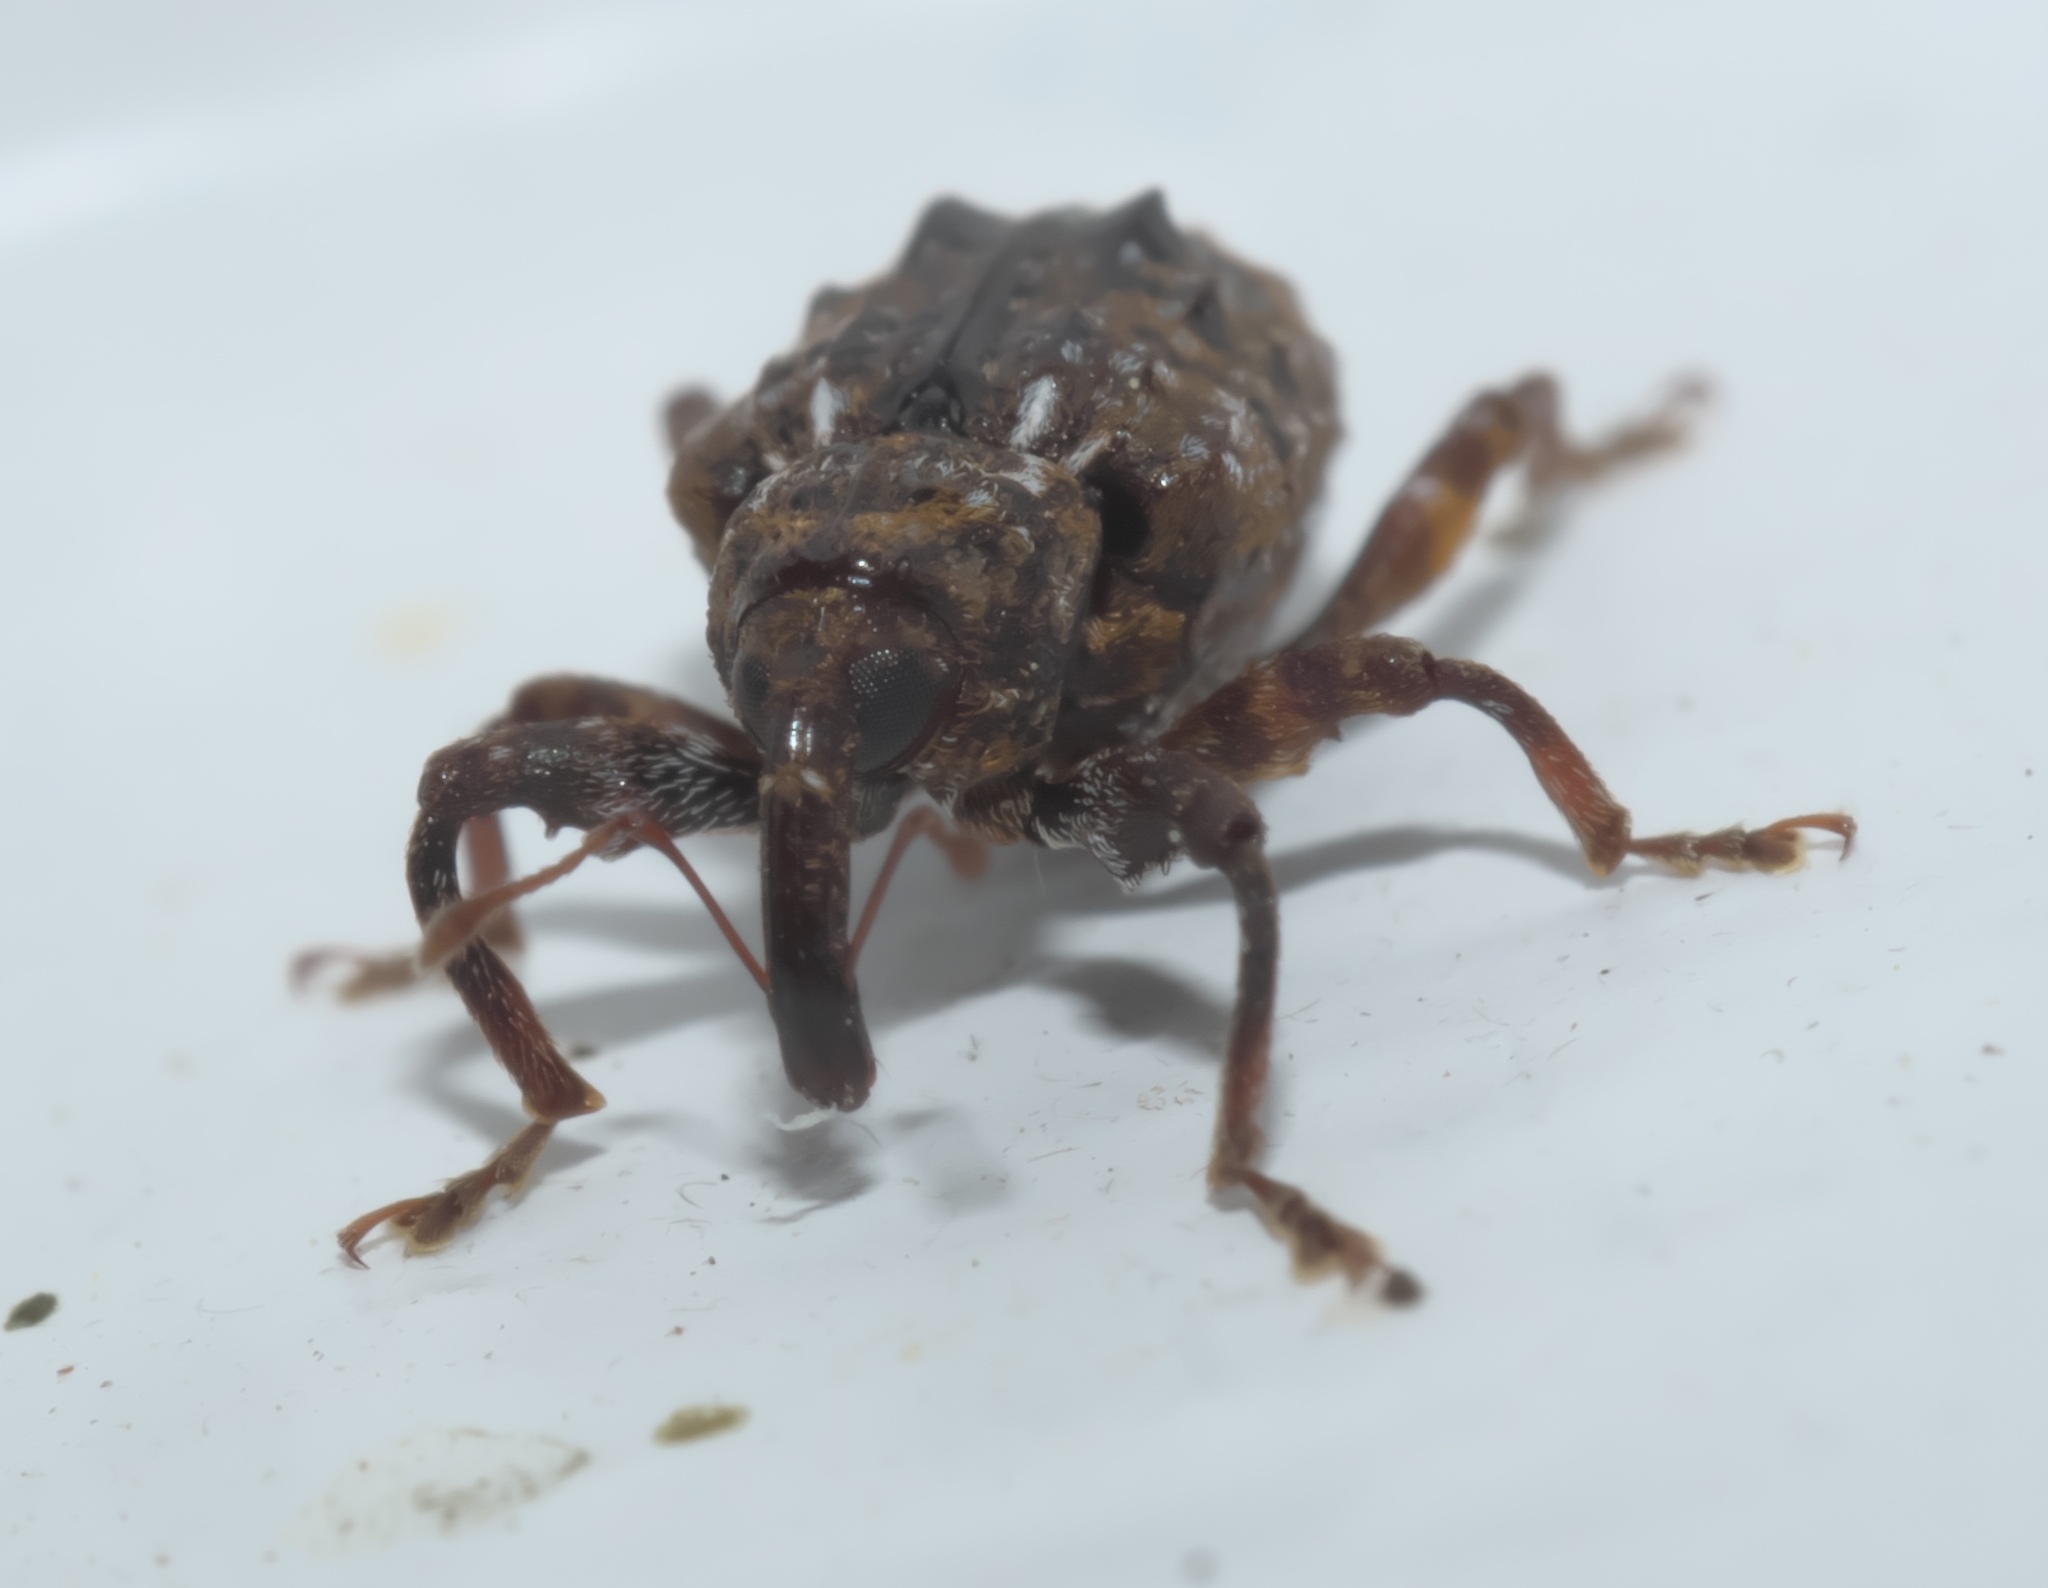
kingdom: Animalia
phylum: Arthropoda
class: Insecta
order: Coleoptera
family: Curculionidae
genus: Conotrachelus
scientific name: Conotrachelus nenuphar
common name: Plum curculio
